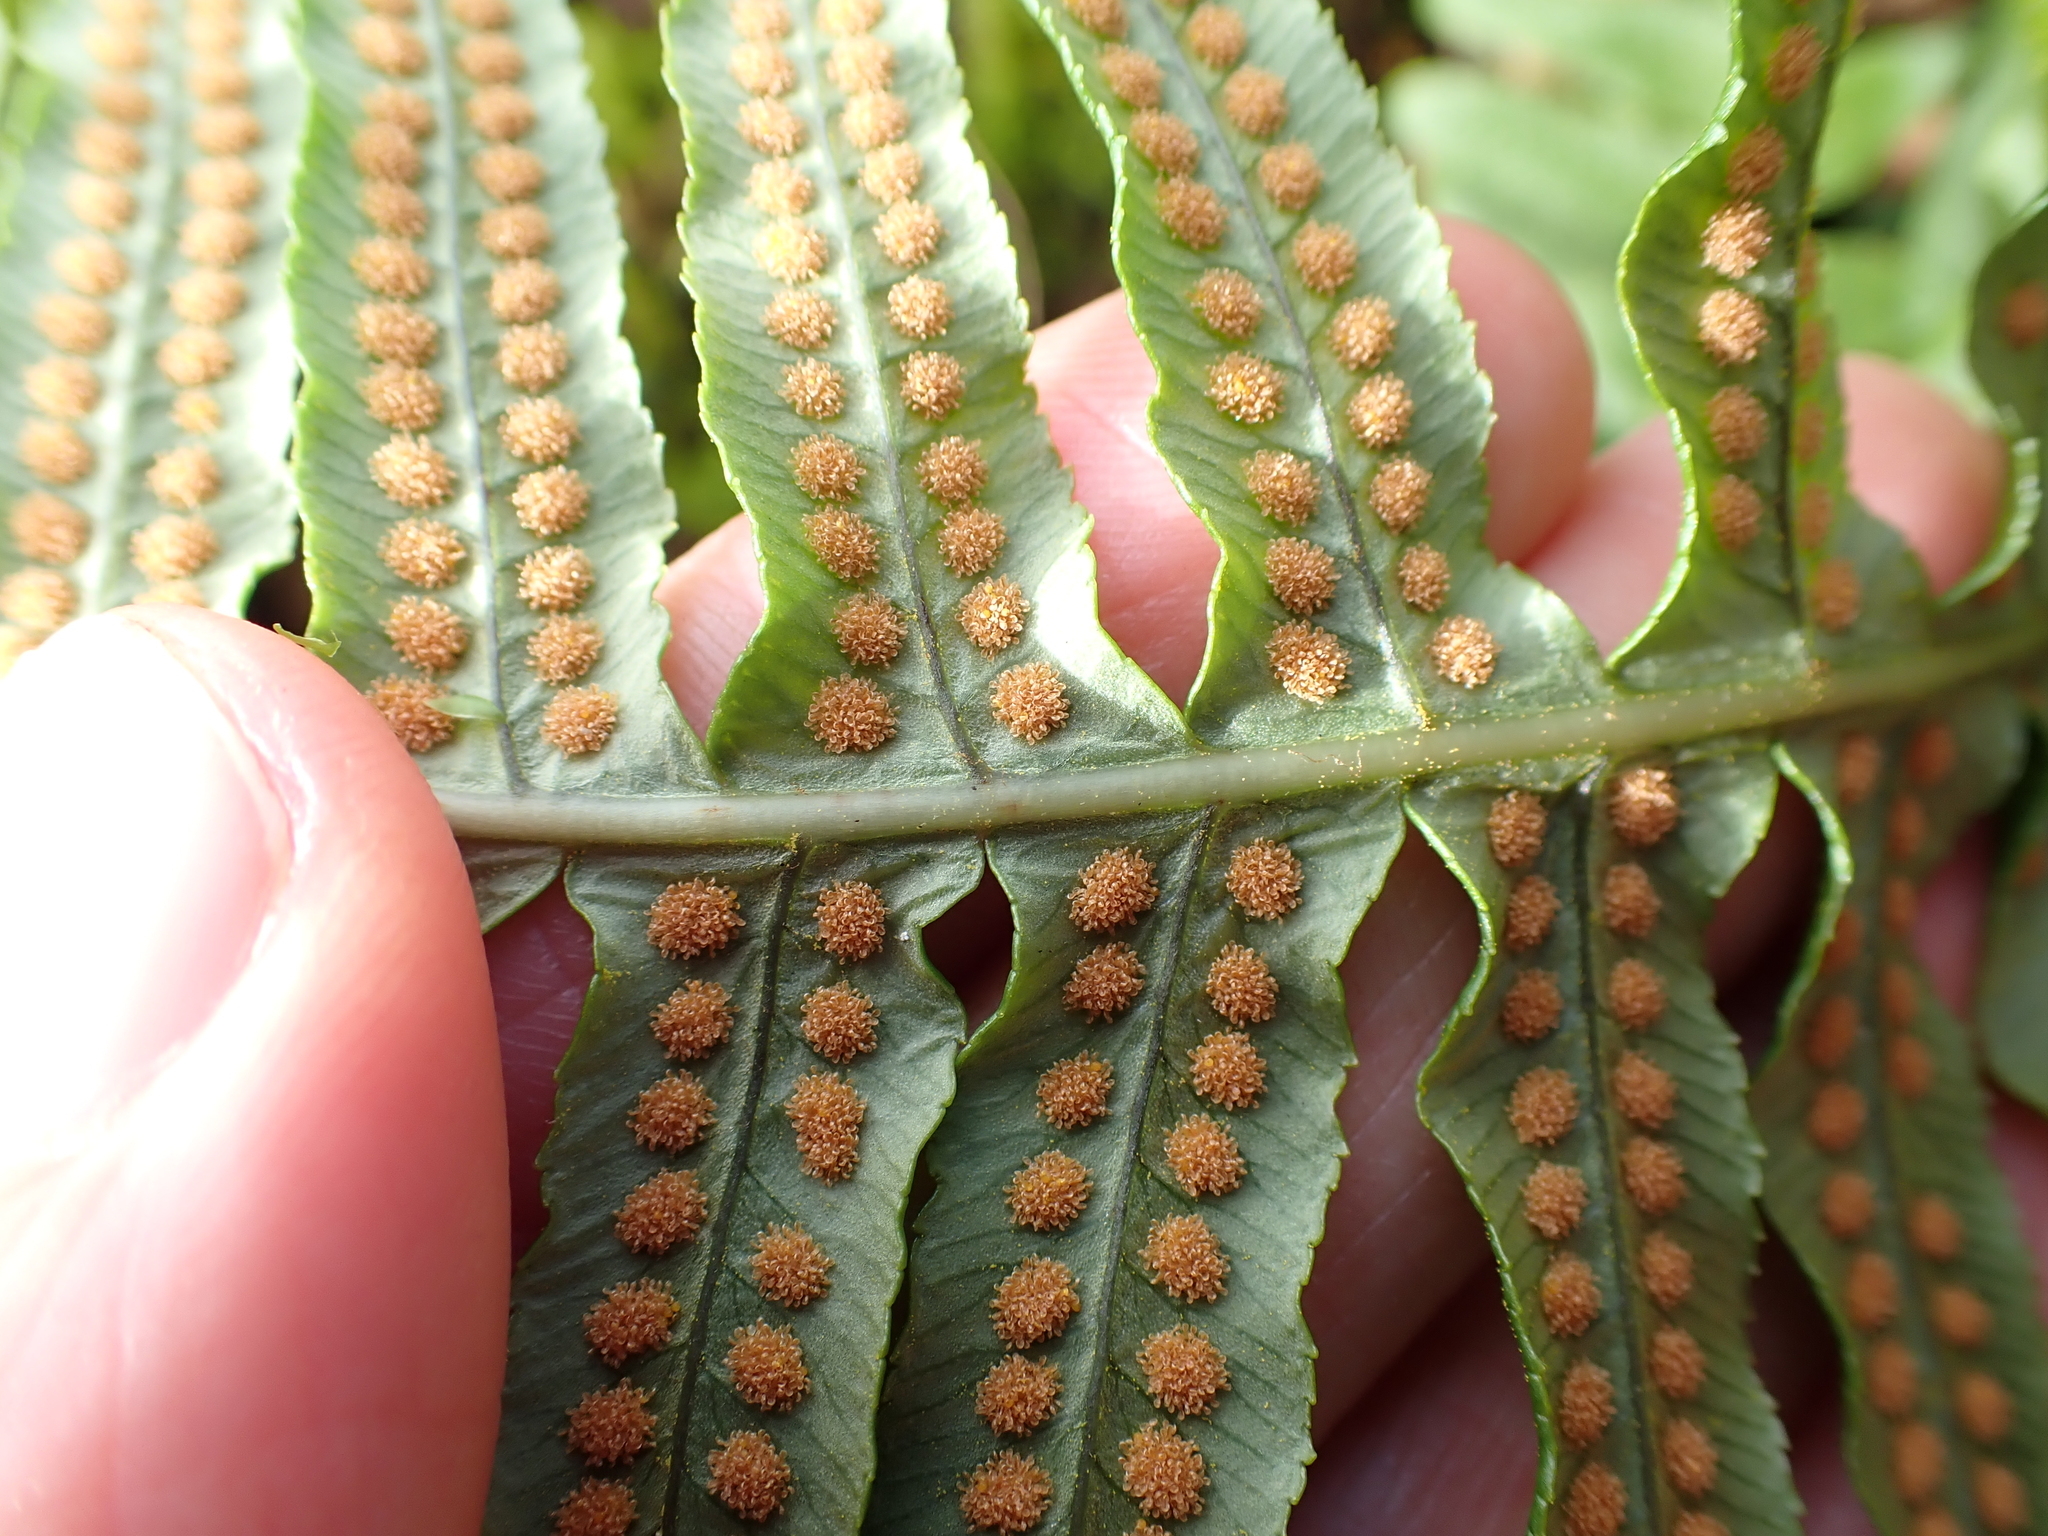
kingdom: Plantae
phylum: Tracheophyta
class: Polypodiopsida
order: Polypodiales
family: Polypodiaceae
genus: Polypodium
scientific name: Polypodium glycyrrhiza
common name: Licorice fern
